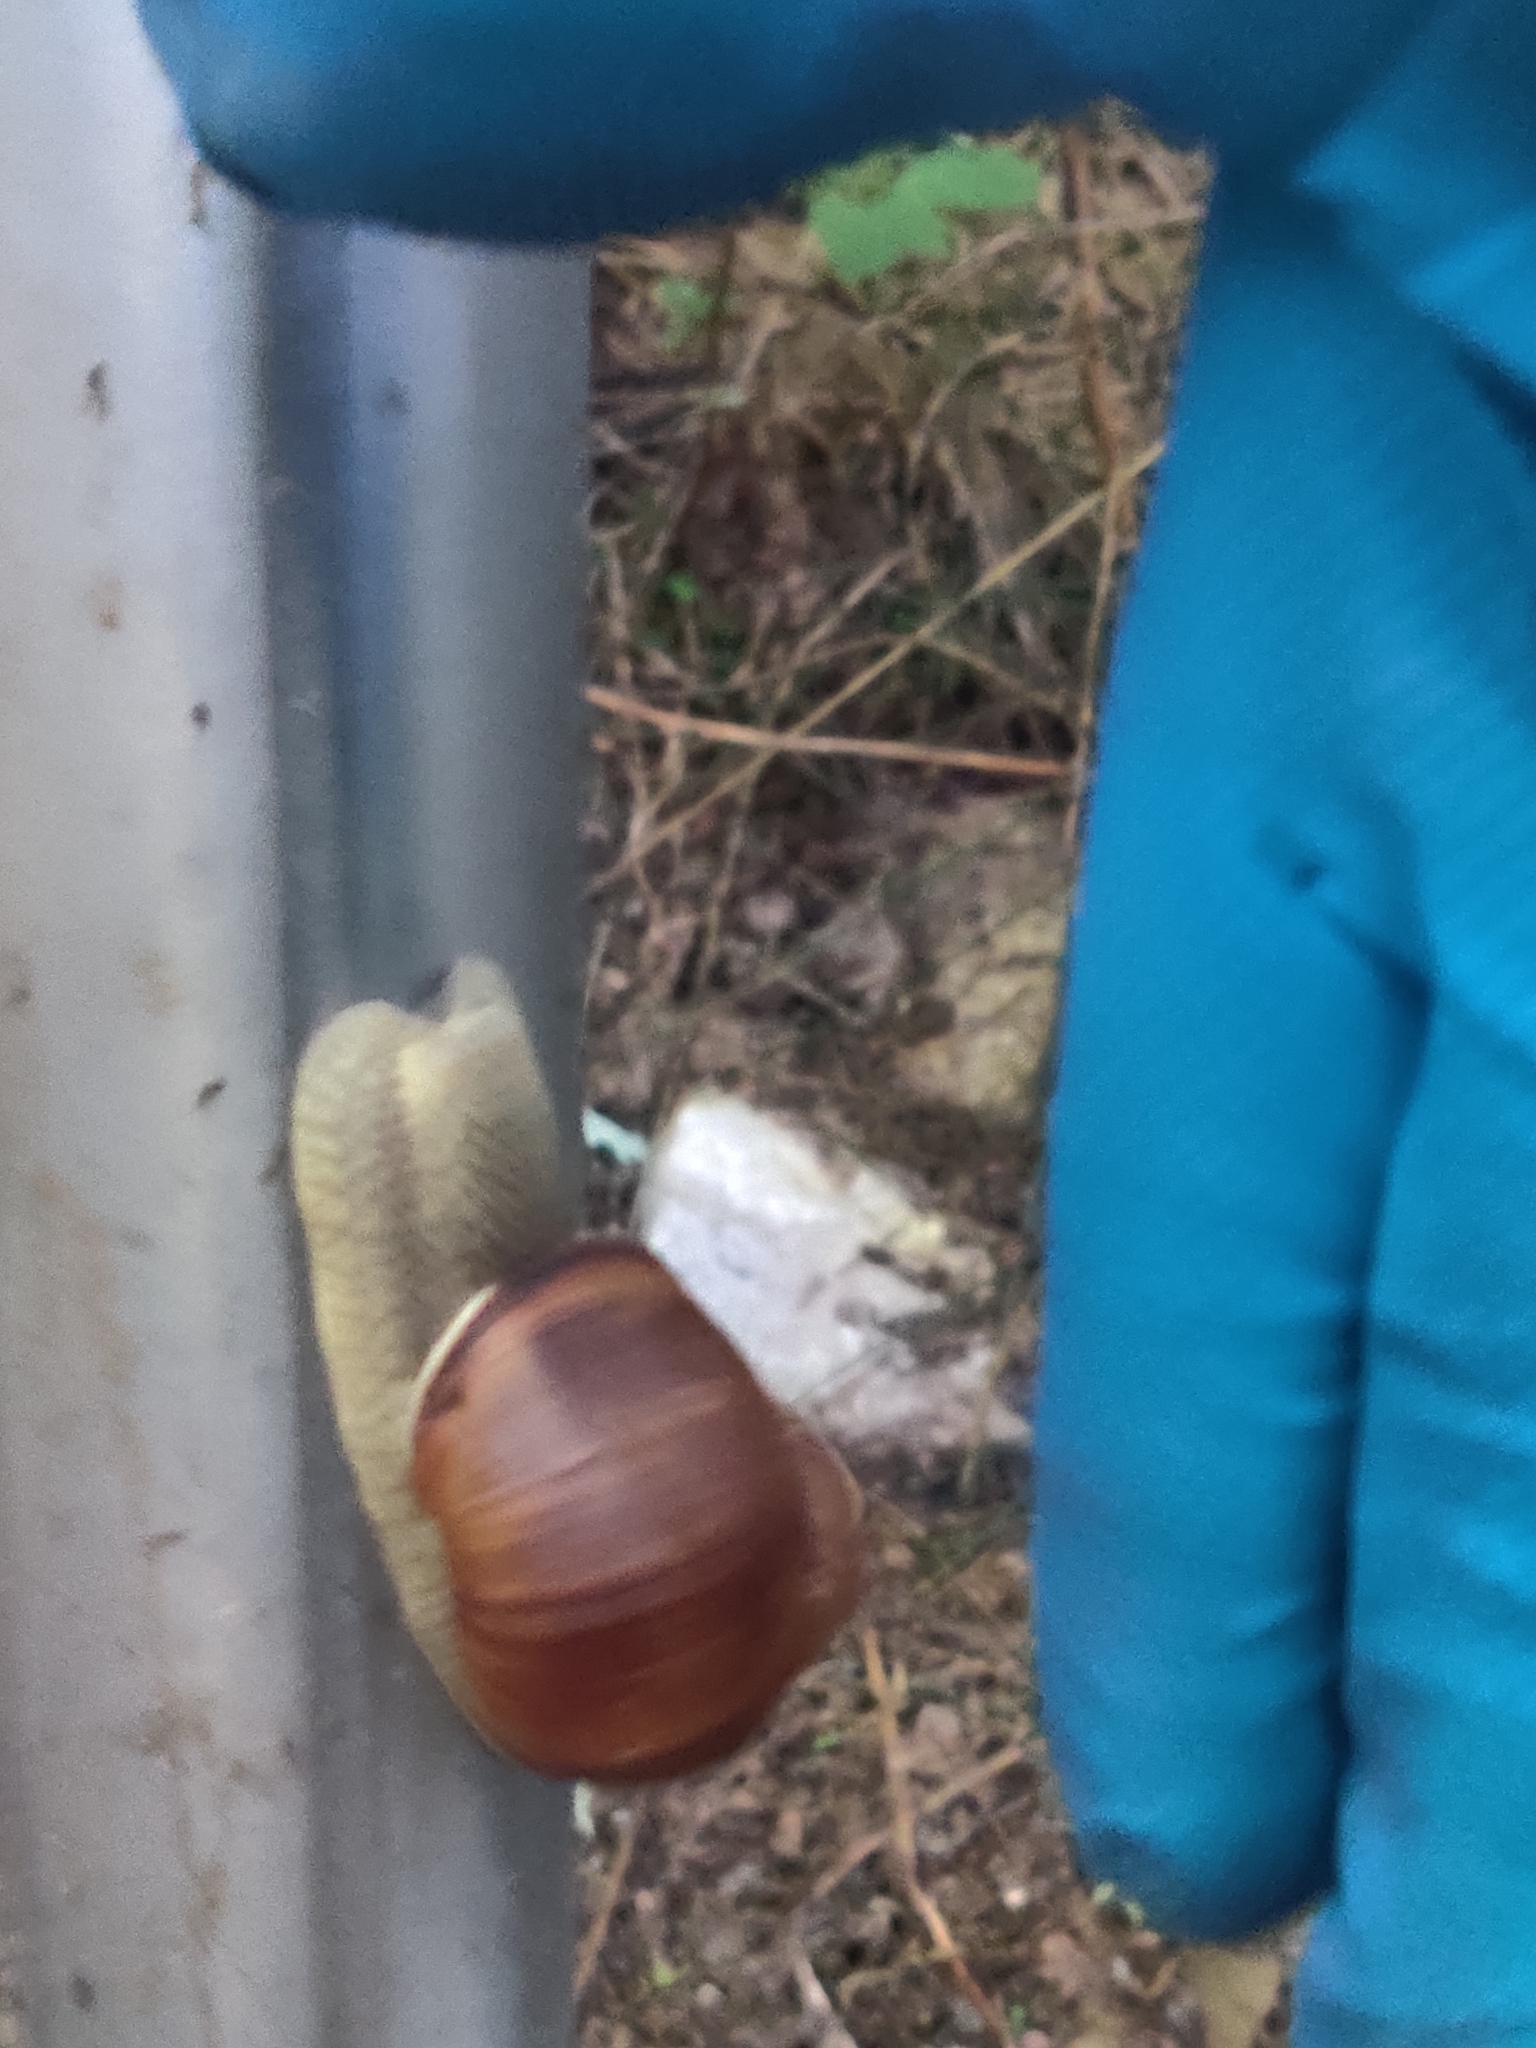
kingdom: Animalia
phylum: Mollusca
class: Gastropoda
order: Stylommatophora
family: Helicidae
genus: Helix
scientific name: Helix pomatia
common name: Roman snail
